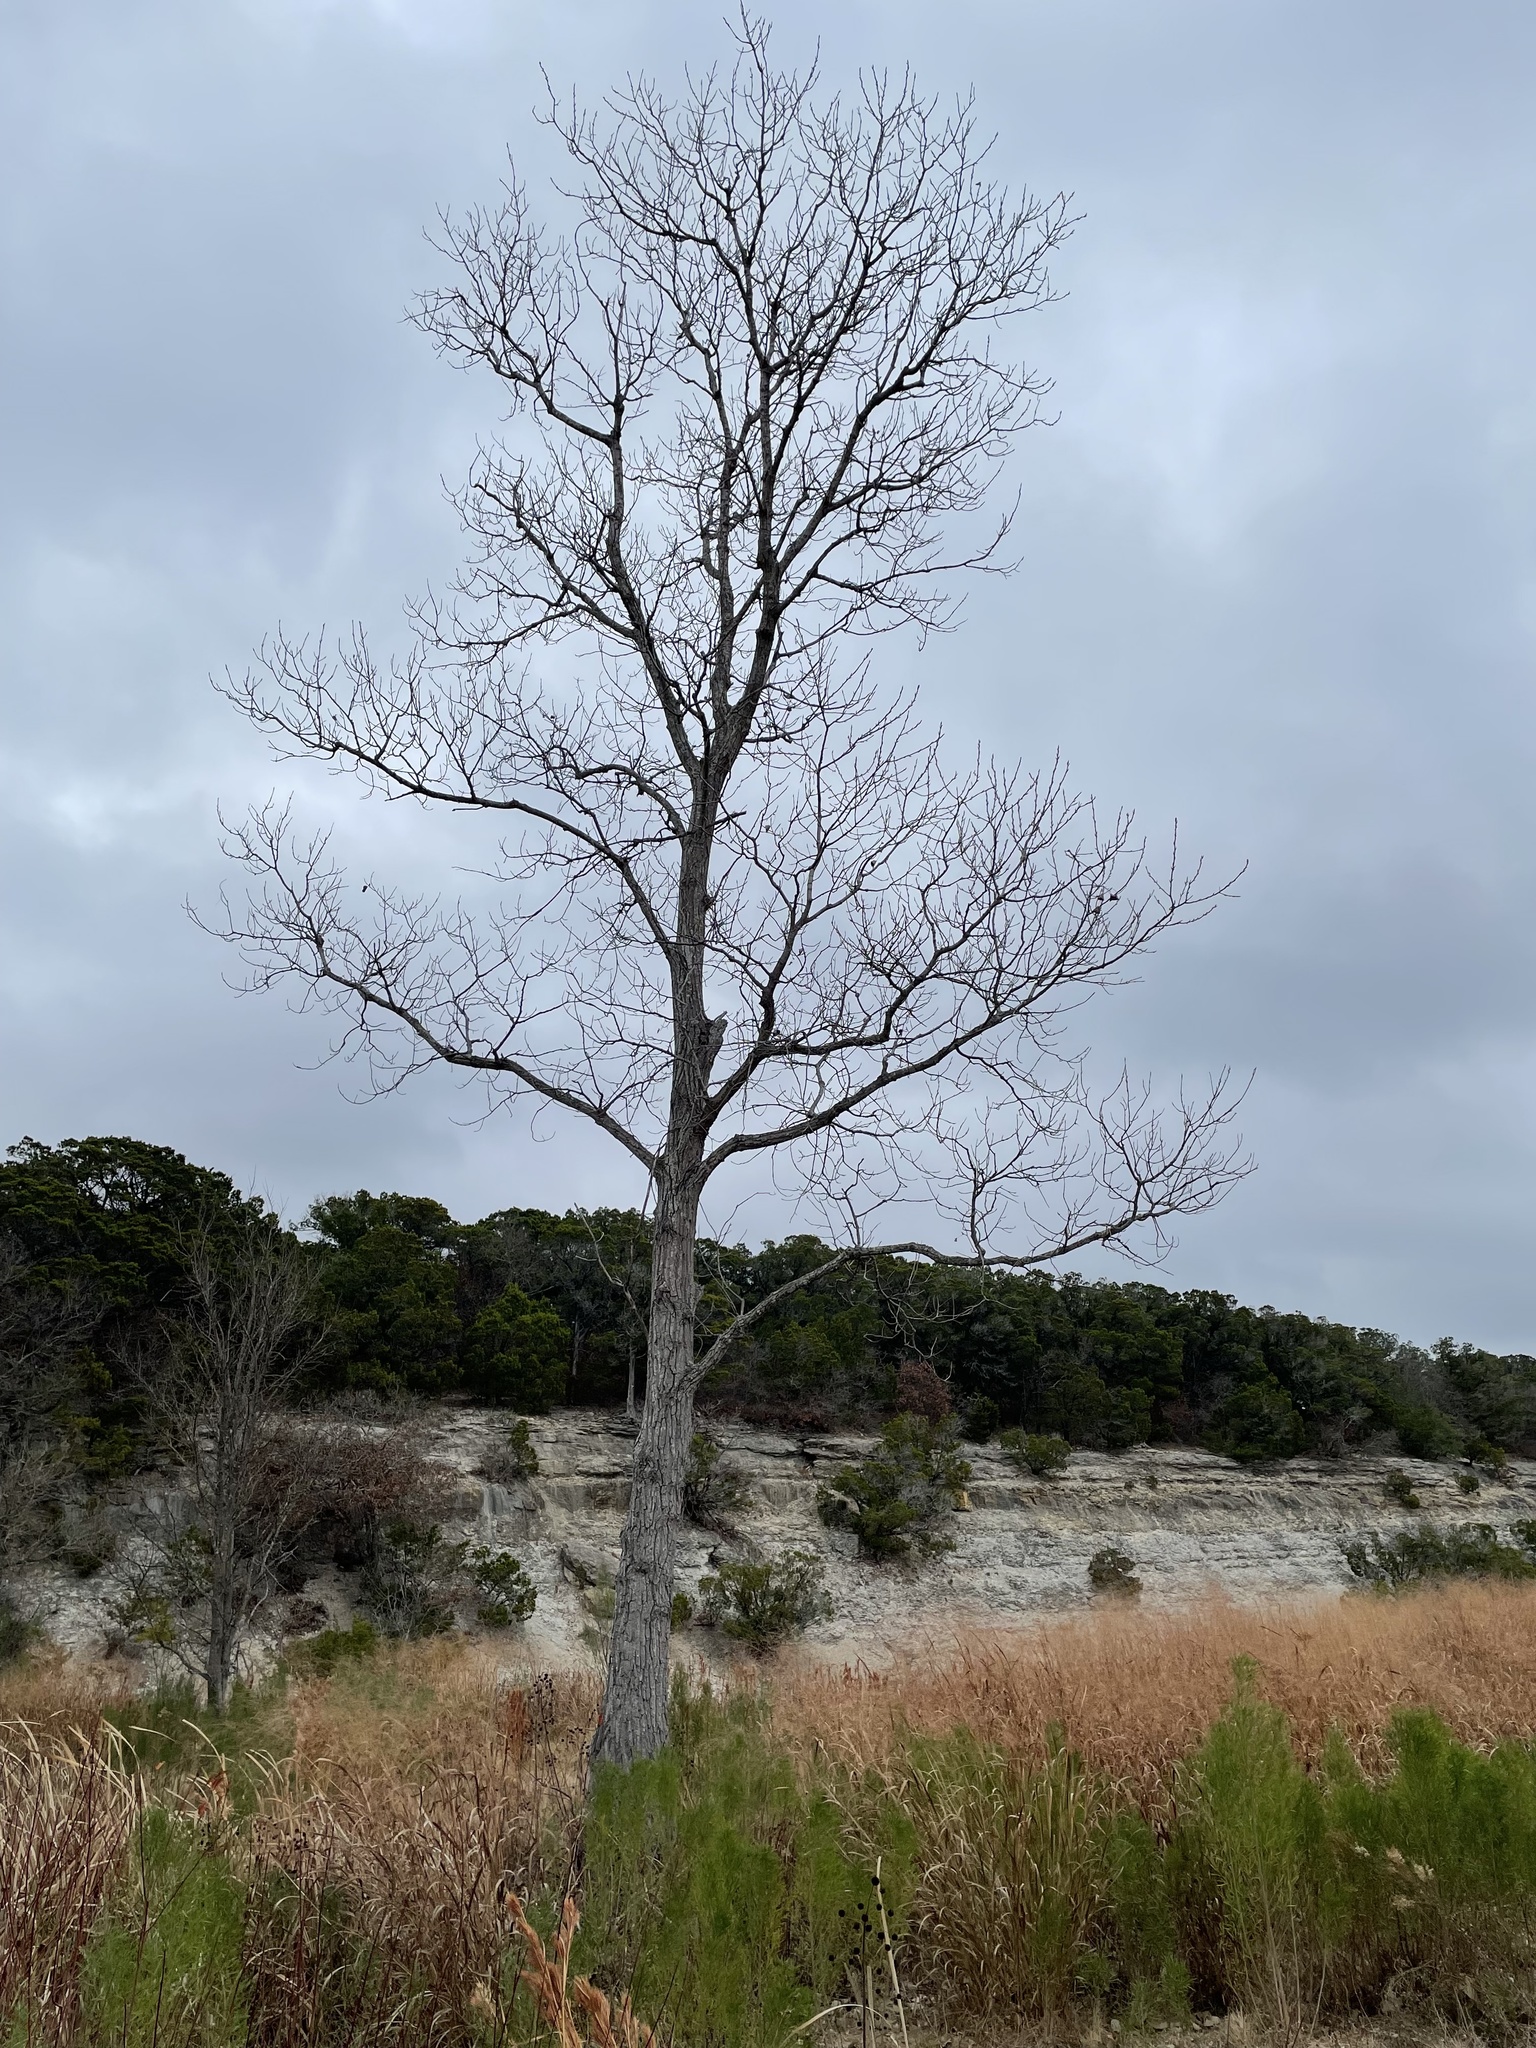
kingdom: Plantae
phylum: Tracheophyta
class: Magnoliopsida
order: Malpighiales
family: Salicaceae
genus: Populus
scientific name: Populus deltoides
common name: Eastern cottonwood
